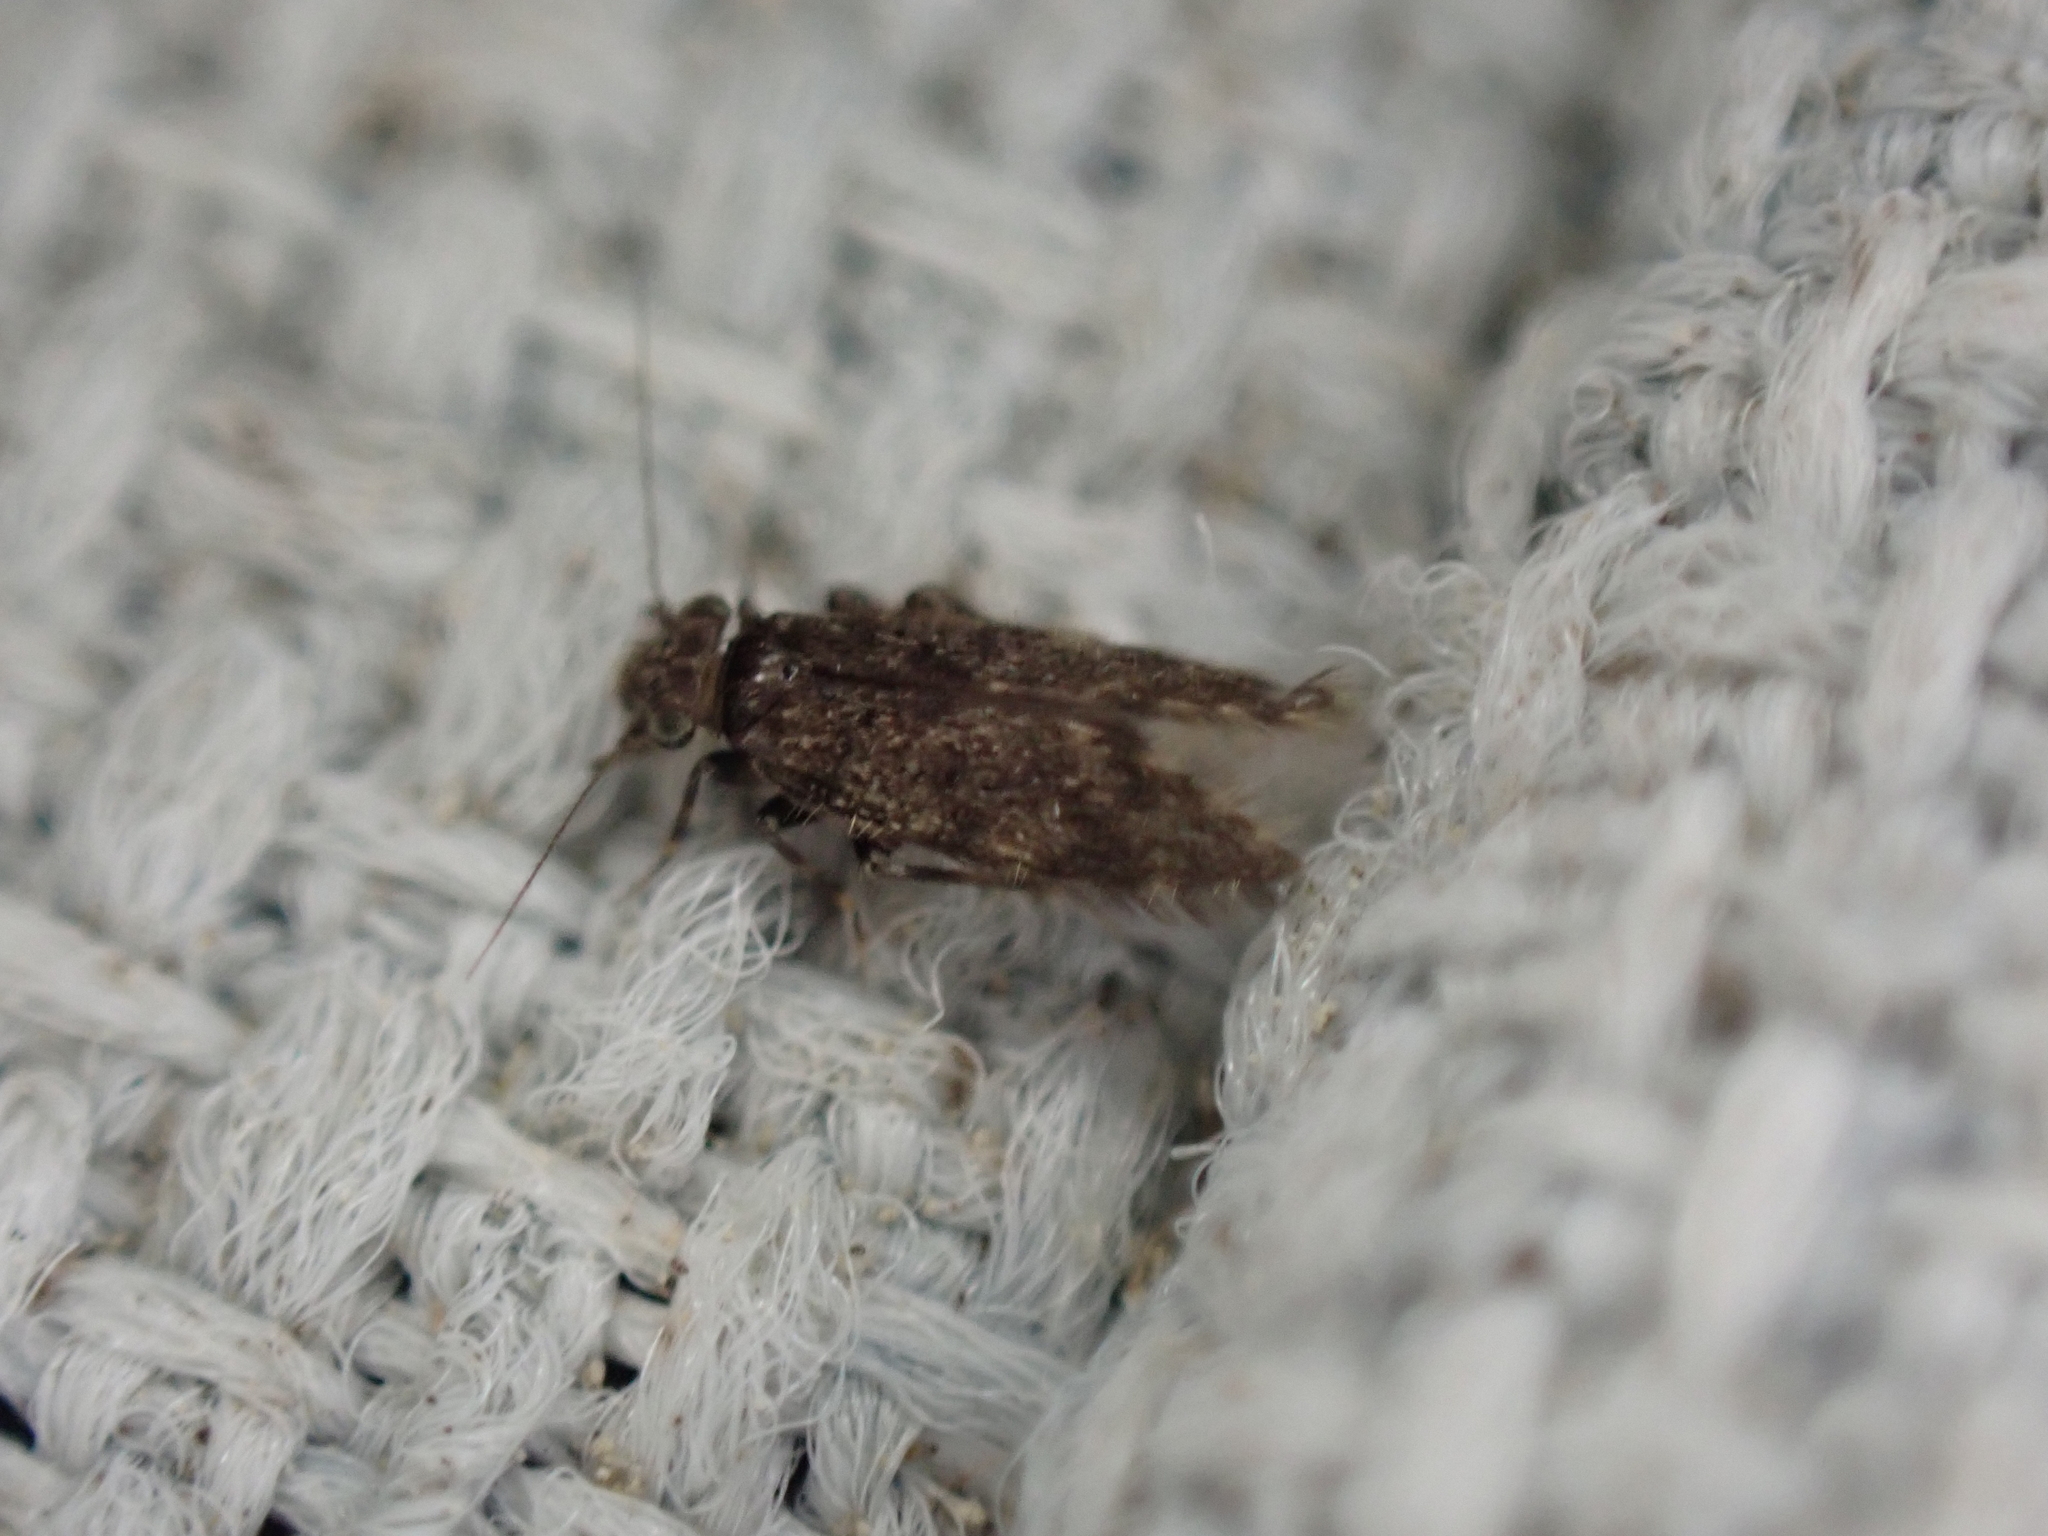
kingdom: Animalia
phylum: Arthropoda
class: Insecta
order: Psocodea
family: Lepidopsocidae
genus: Echmepteryx
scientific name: Echmepteryx hageni
